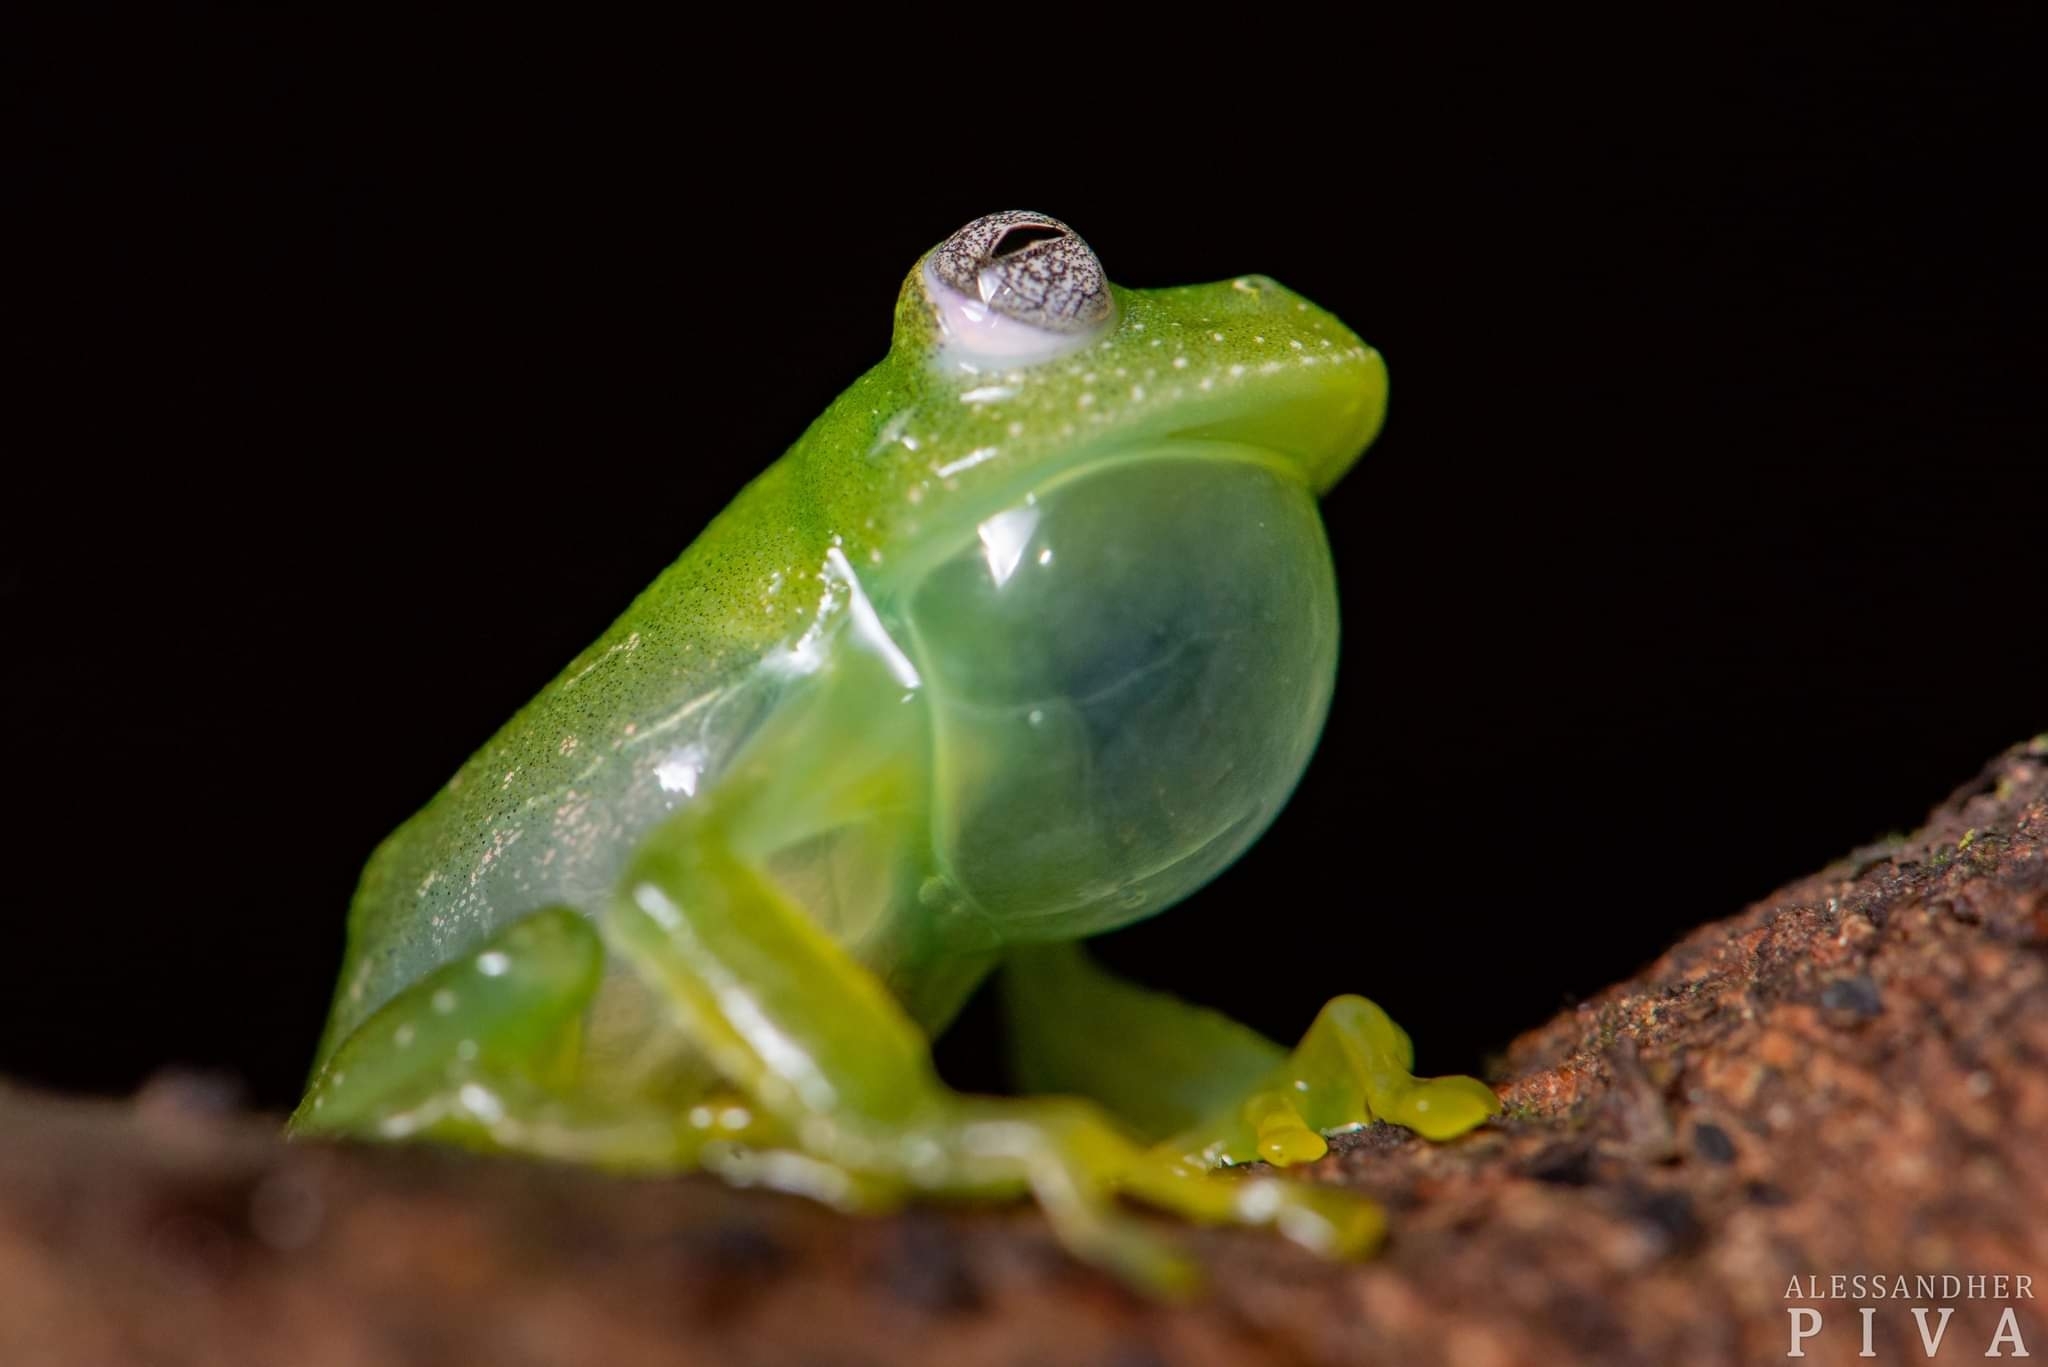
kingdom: Animalia
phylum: Chordata
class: Amphibia
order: Anura
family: Centrolenidae
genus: Vitreorana
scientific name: Vitreorana parvula
